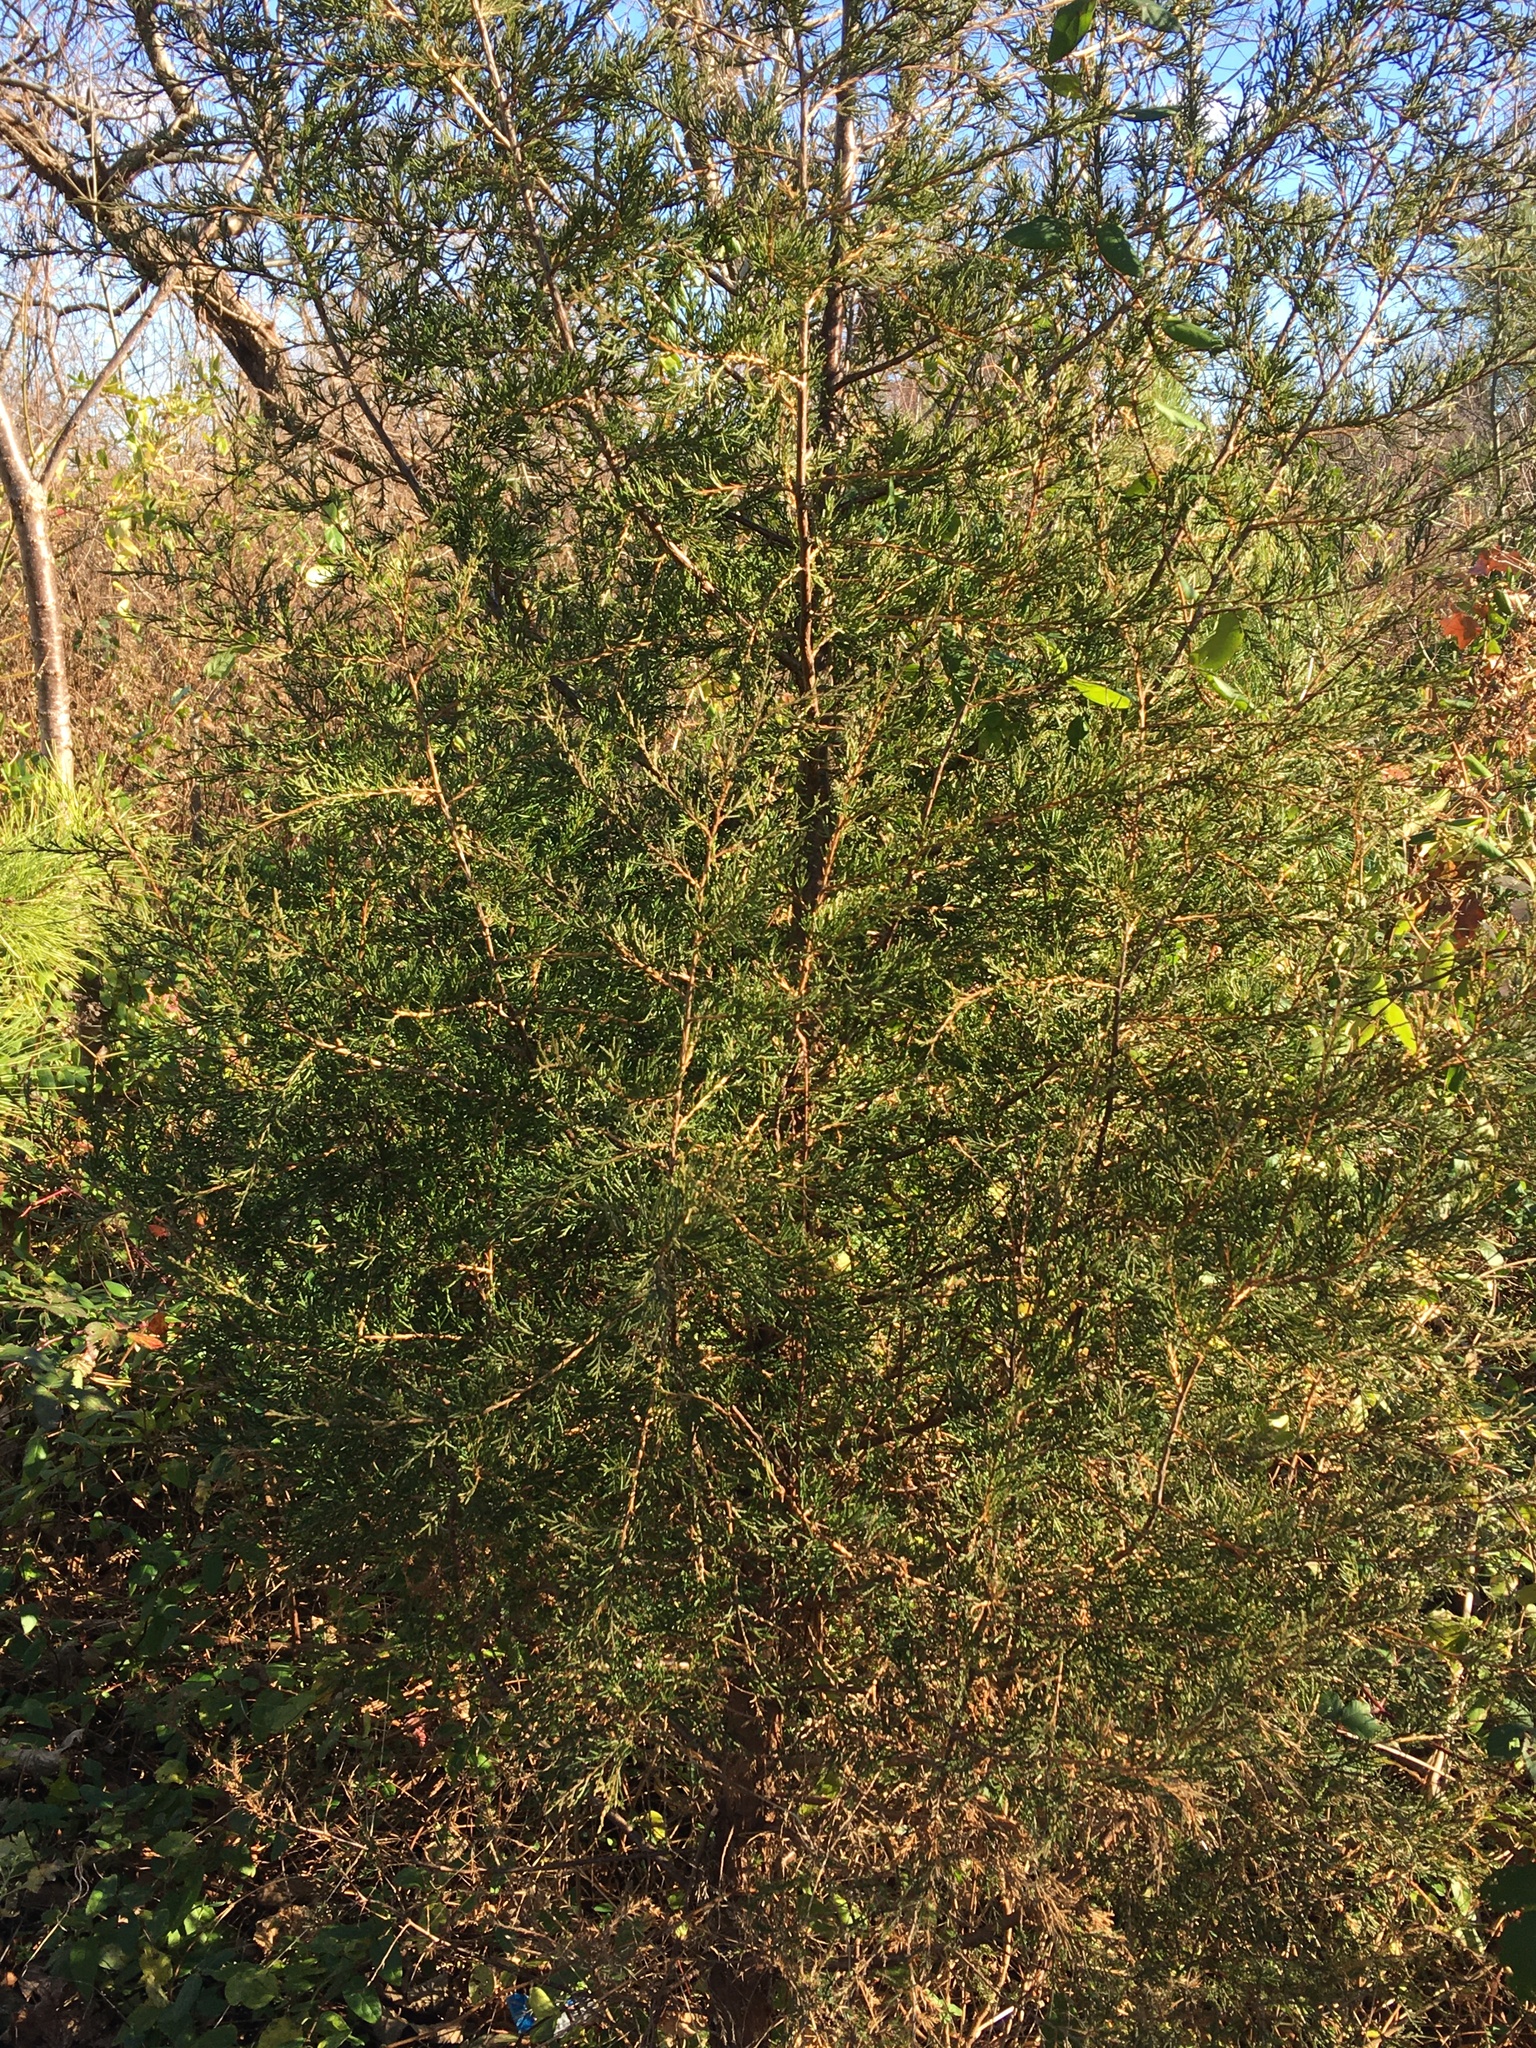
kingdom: Plantae
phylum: Tracheophyta
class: Pinopsida
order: Pinales
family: Cupressaceae
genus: Juniperus
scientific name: Juniperus virginiana
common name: Red juniper
